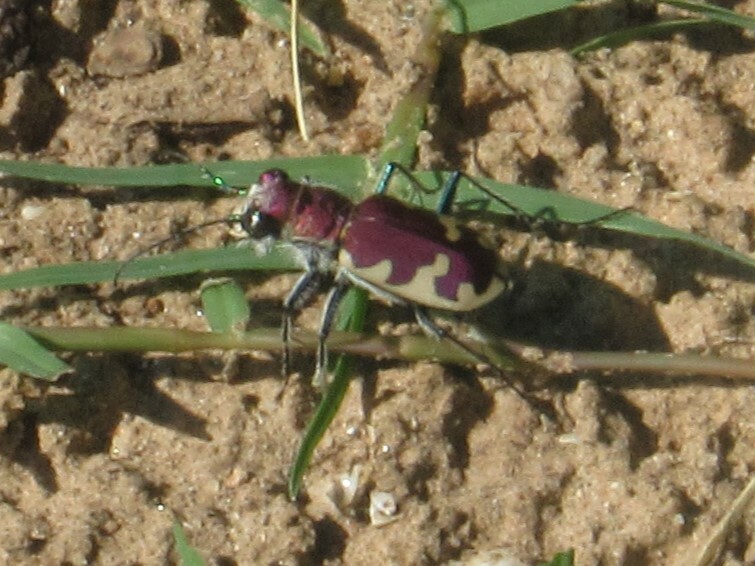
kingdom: Animalia
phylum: Arthropoda
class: Insecta
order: Coleoptera
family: Carabidae
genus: Cicindela
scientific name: Cicindela formosa
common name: Big sand tiger beetle
